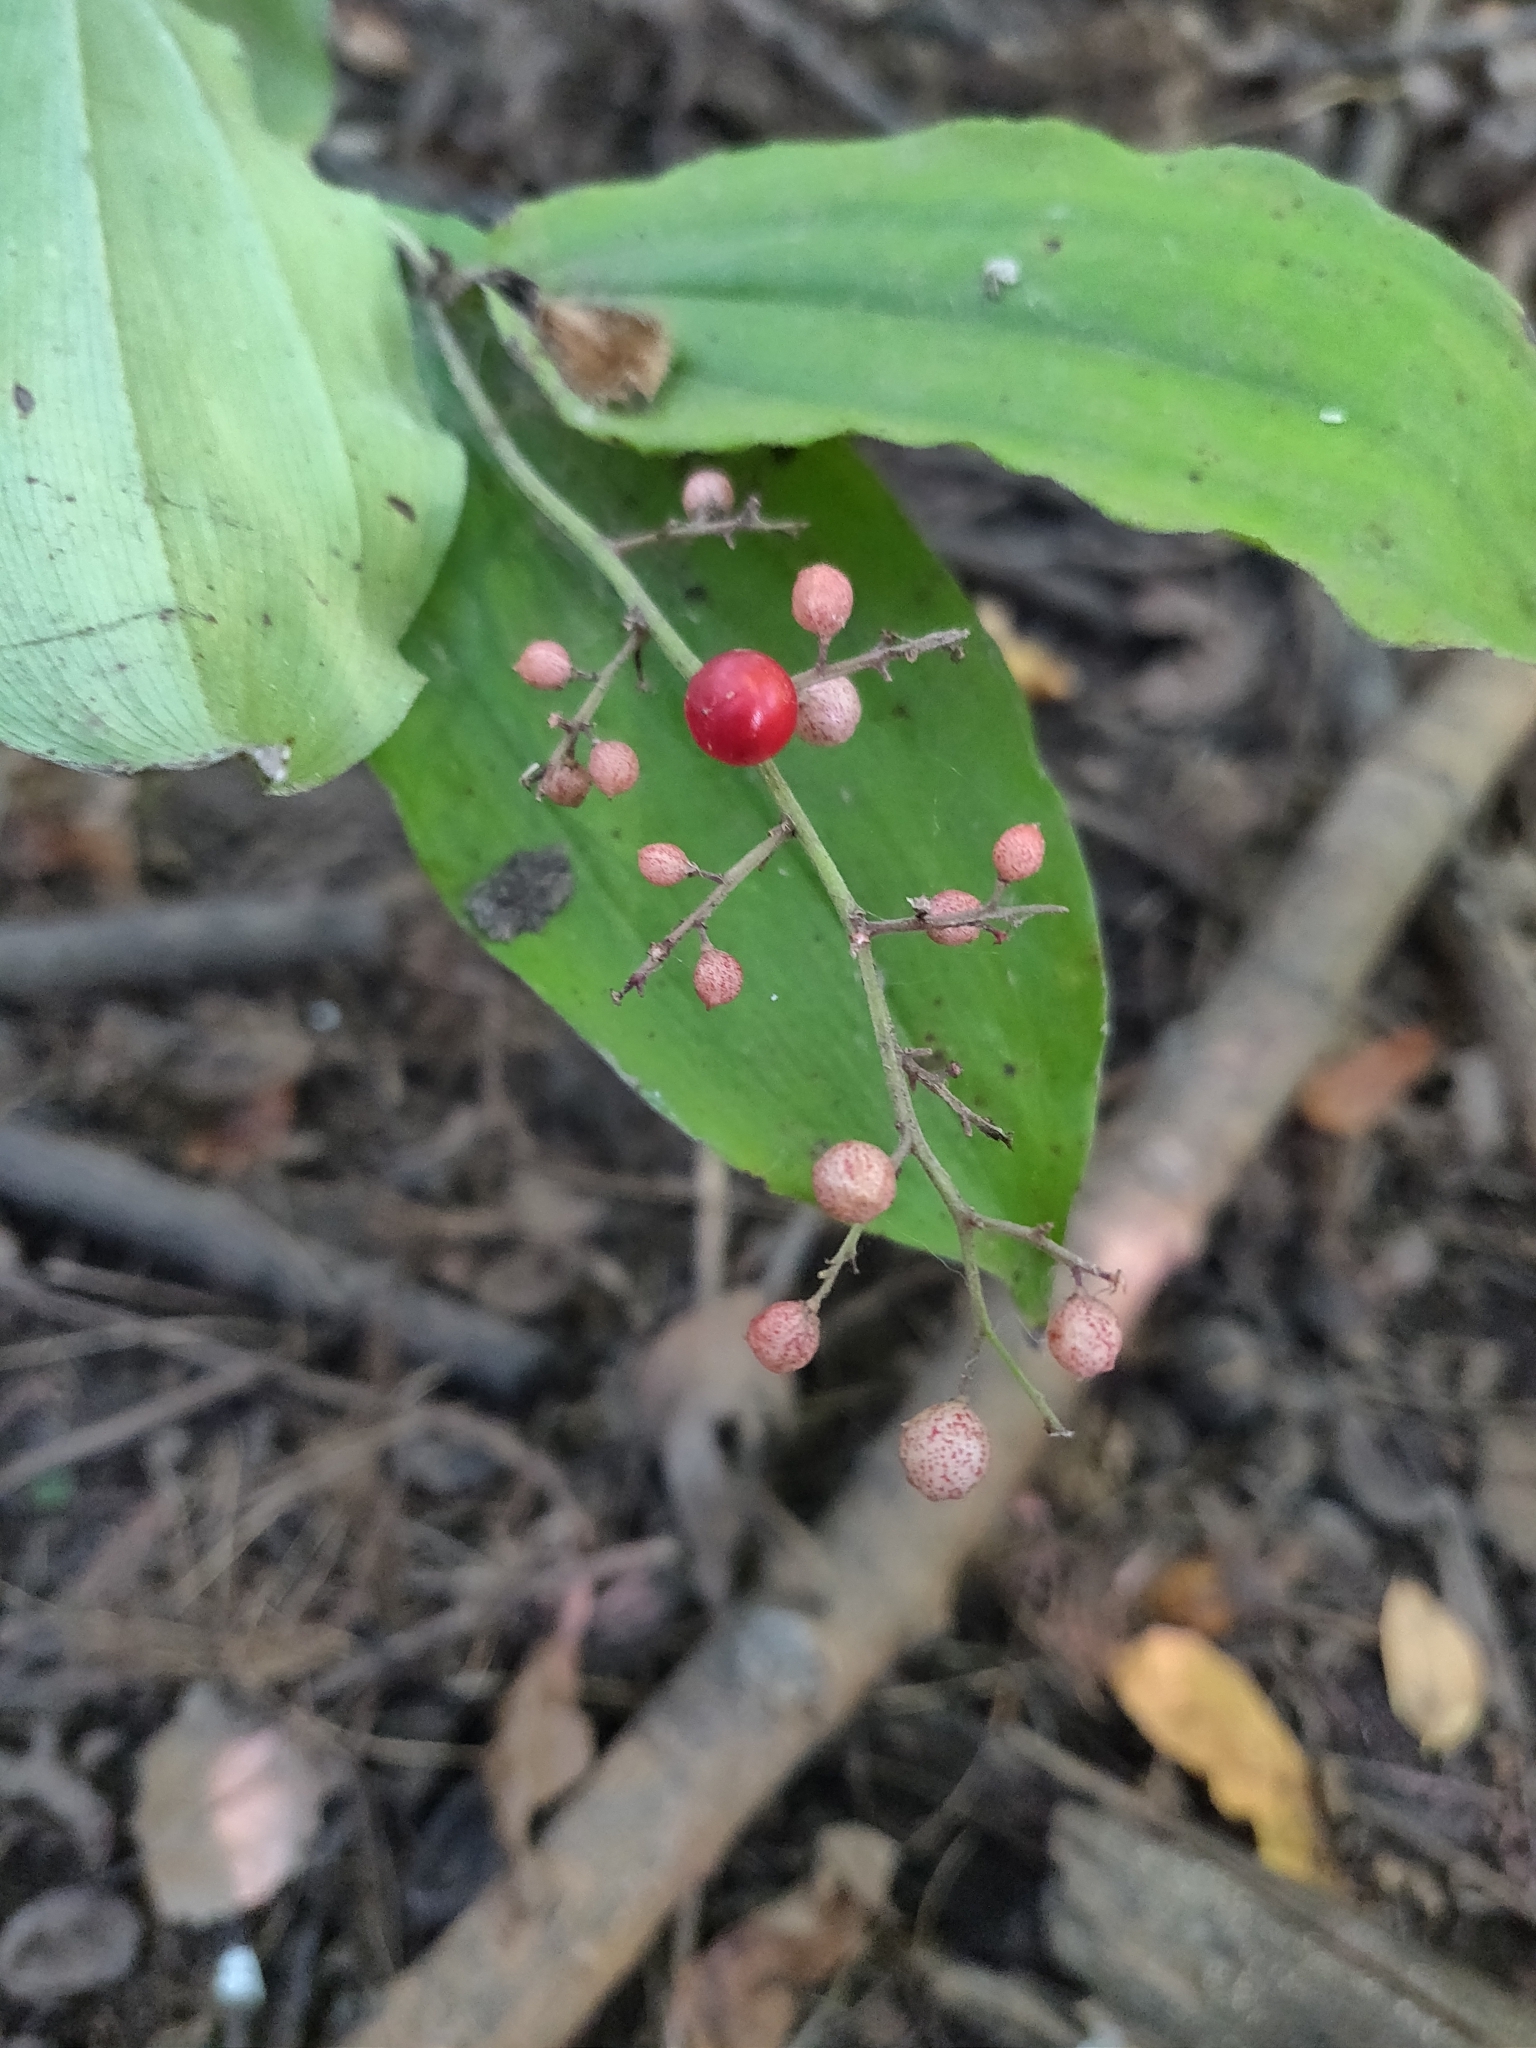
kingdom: Plantae
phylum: Tracheophyta
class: Liliopsida
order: Asparagales
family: Asparagaceae
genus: Maianthemum
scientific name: Maianthemum racemosum
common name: False spikenard
